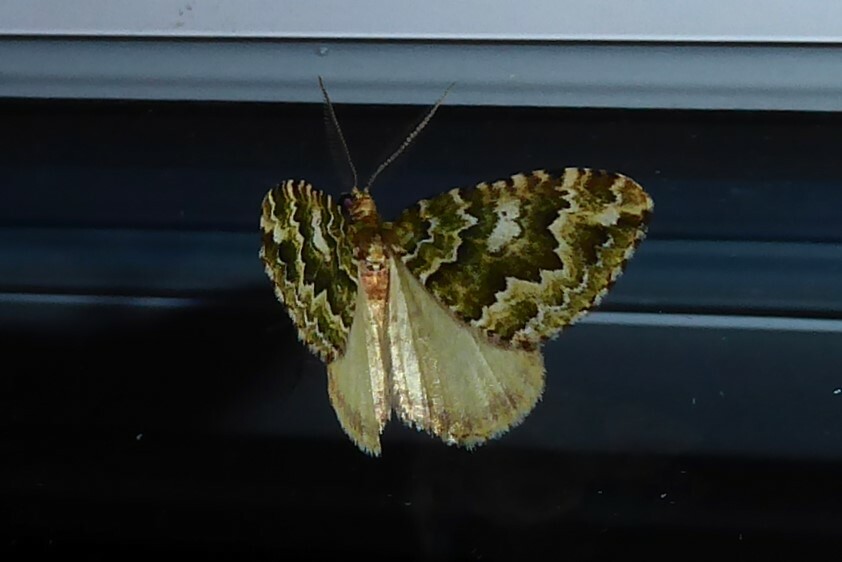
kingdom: Animalia
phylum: Arthropoda
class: Insecta
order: Lepidoptera
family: Geometridae
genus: Asaphodes
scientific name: Asaphodes beata
